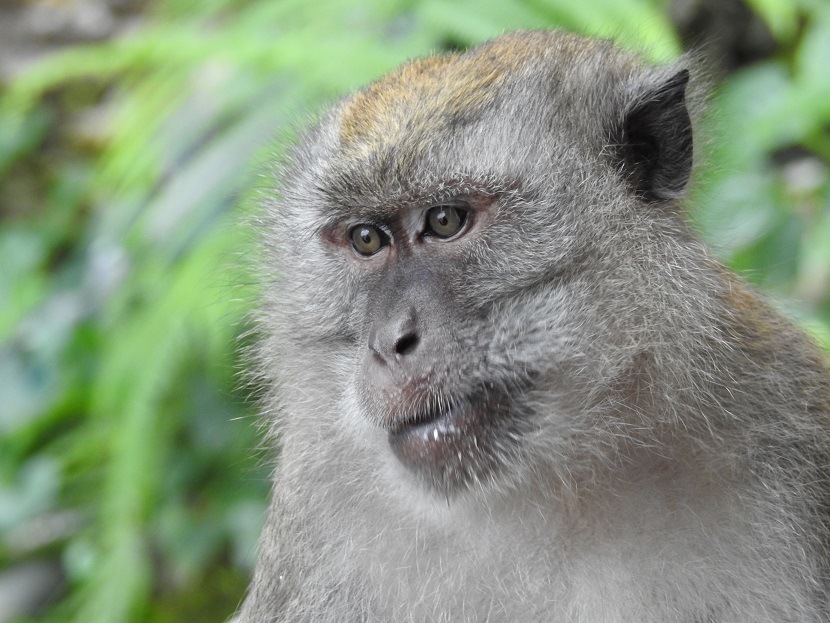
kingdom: Animalia
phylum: Chordata
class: Mammalia
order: Primates
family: Cercopithecidae
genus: Macaca
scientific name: Macaca fascicularis
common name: Crab-eating macaque
